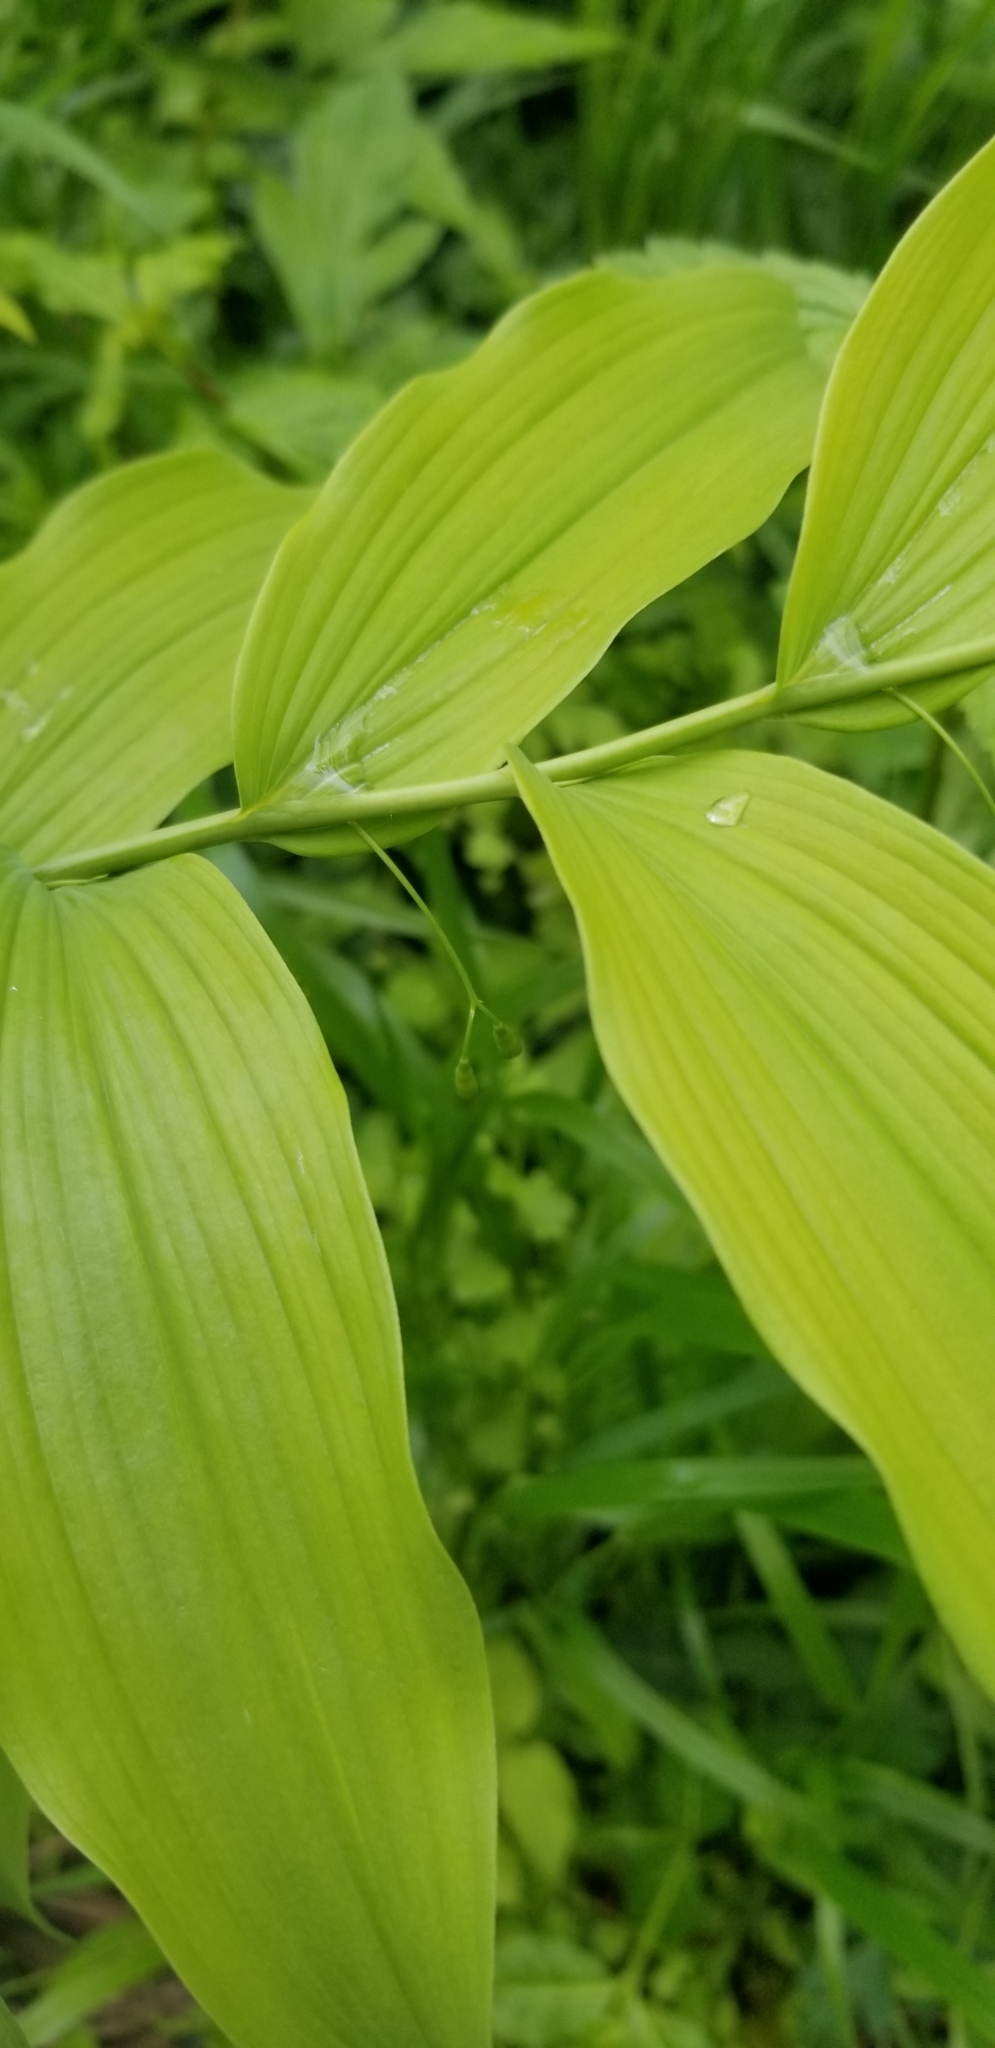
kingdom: Plantae
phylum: Tracheophyta
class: Liliopsida
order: Asparagales
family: Asparagaceae
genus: Polygonatum
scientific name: Polygonatum biflorum
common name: American solomon's-seal
